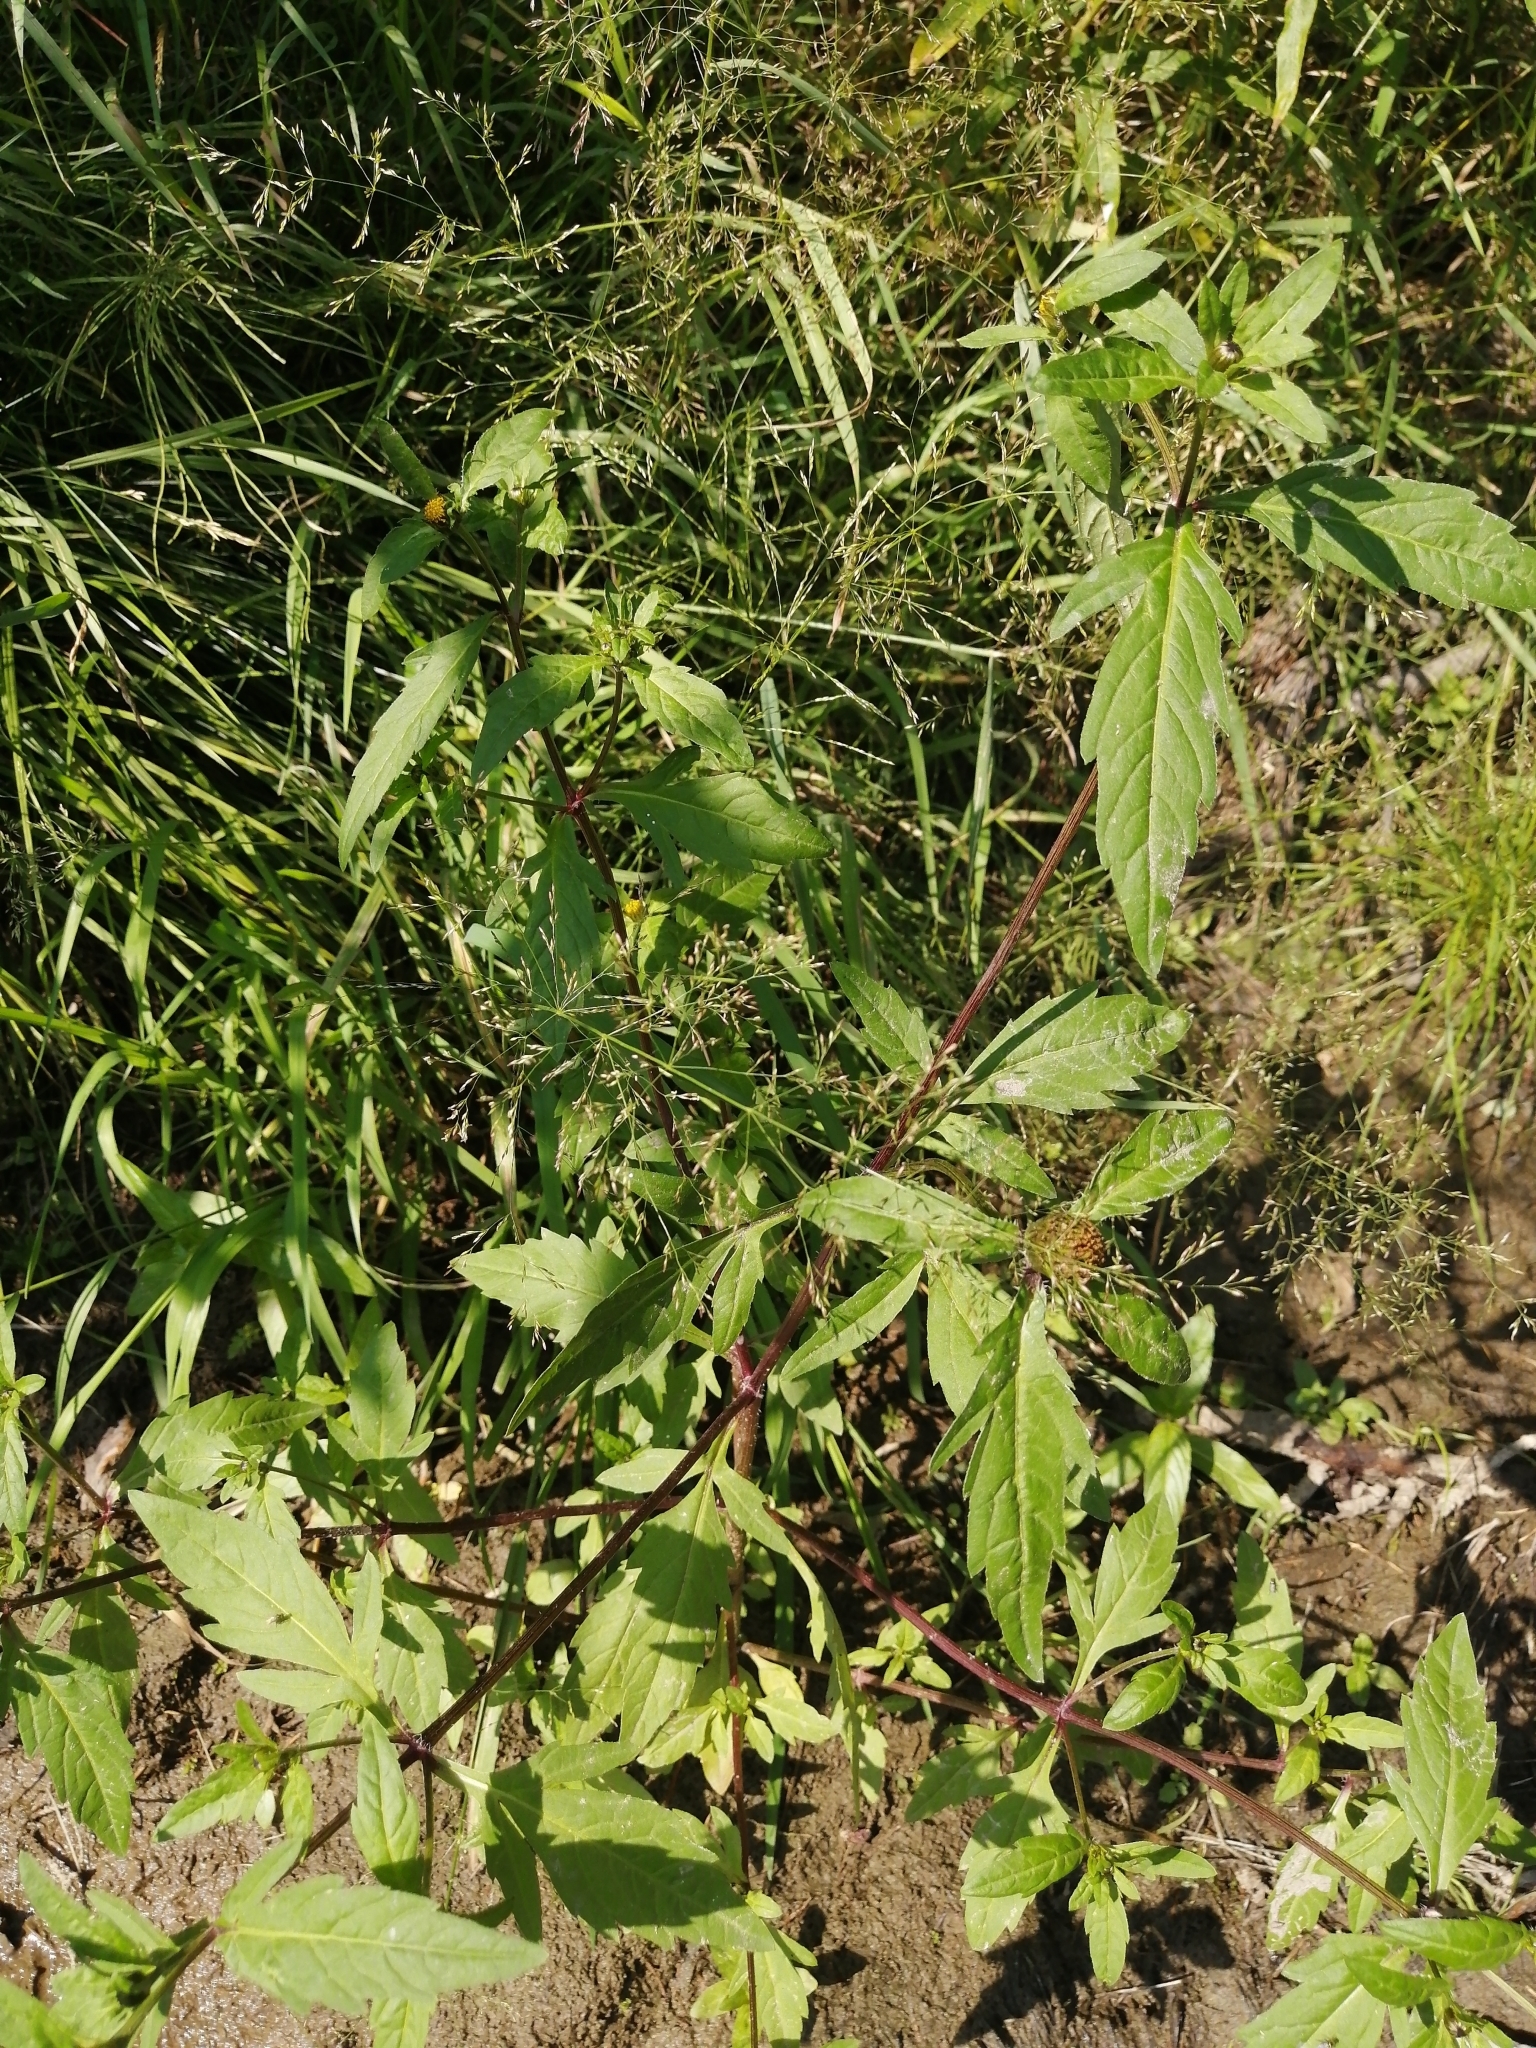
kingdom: Plantae
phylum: Tracheophyta
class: Magnoliopsida
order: Asterales
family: Asteraceae
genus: Bidens
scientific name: Bidens tripartita
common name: Trifid bur-marigold
